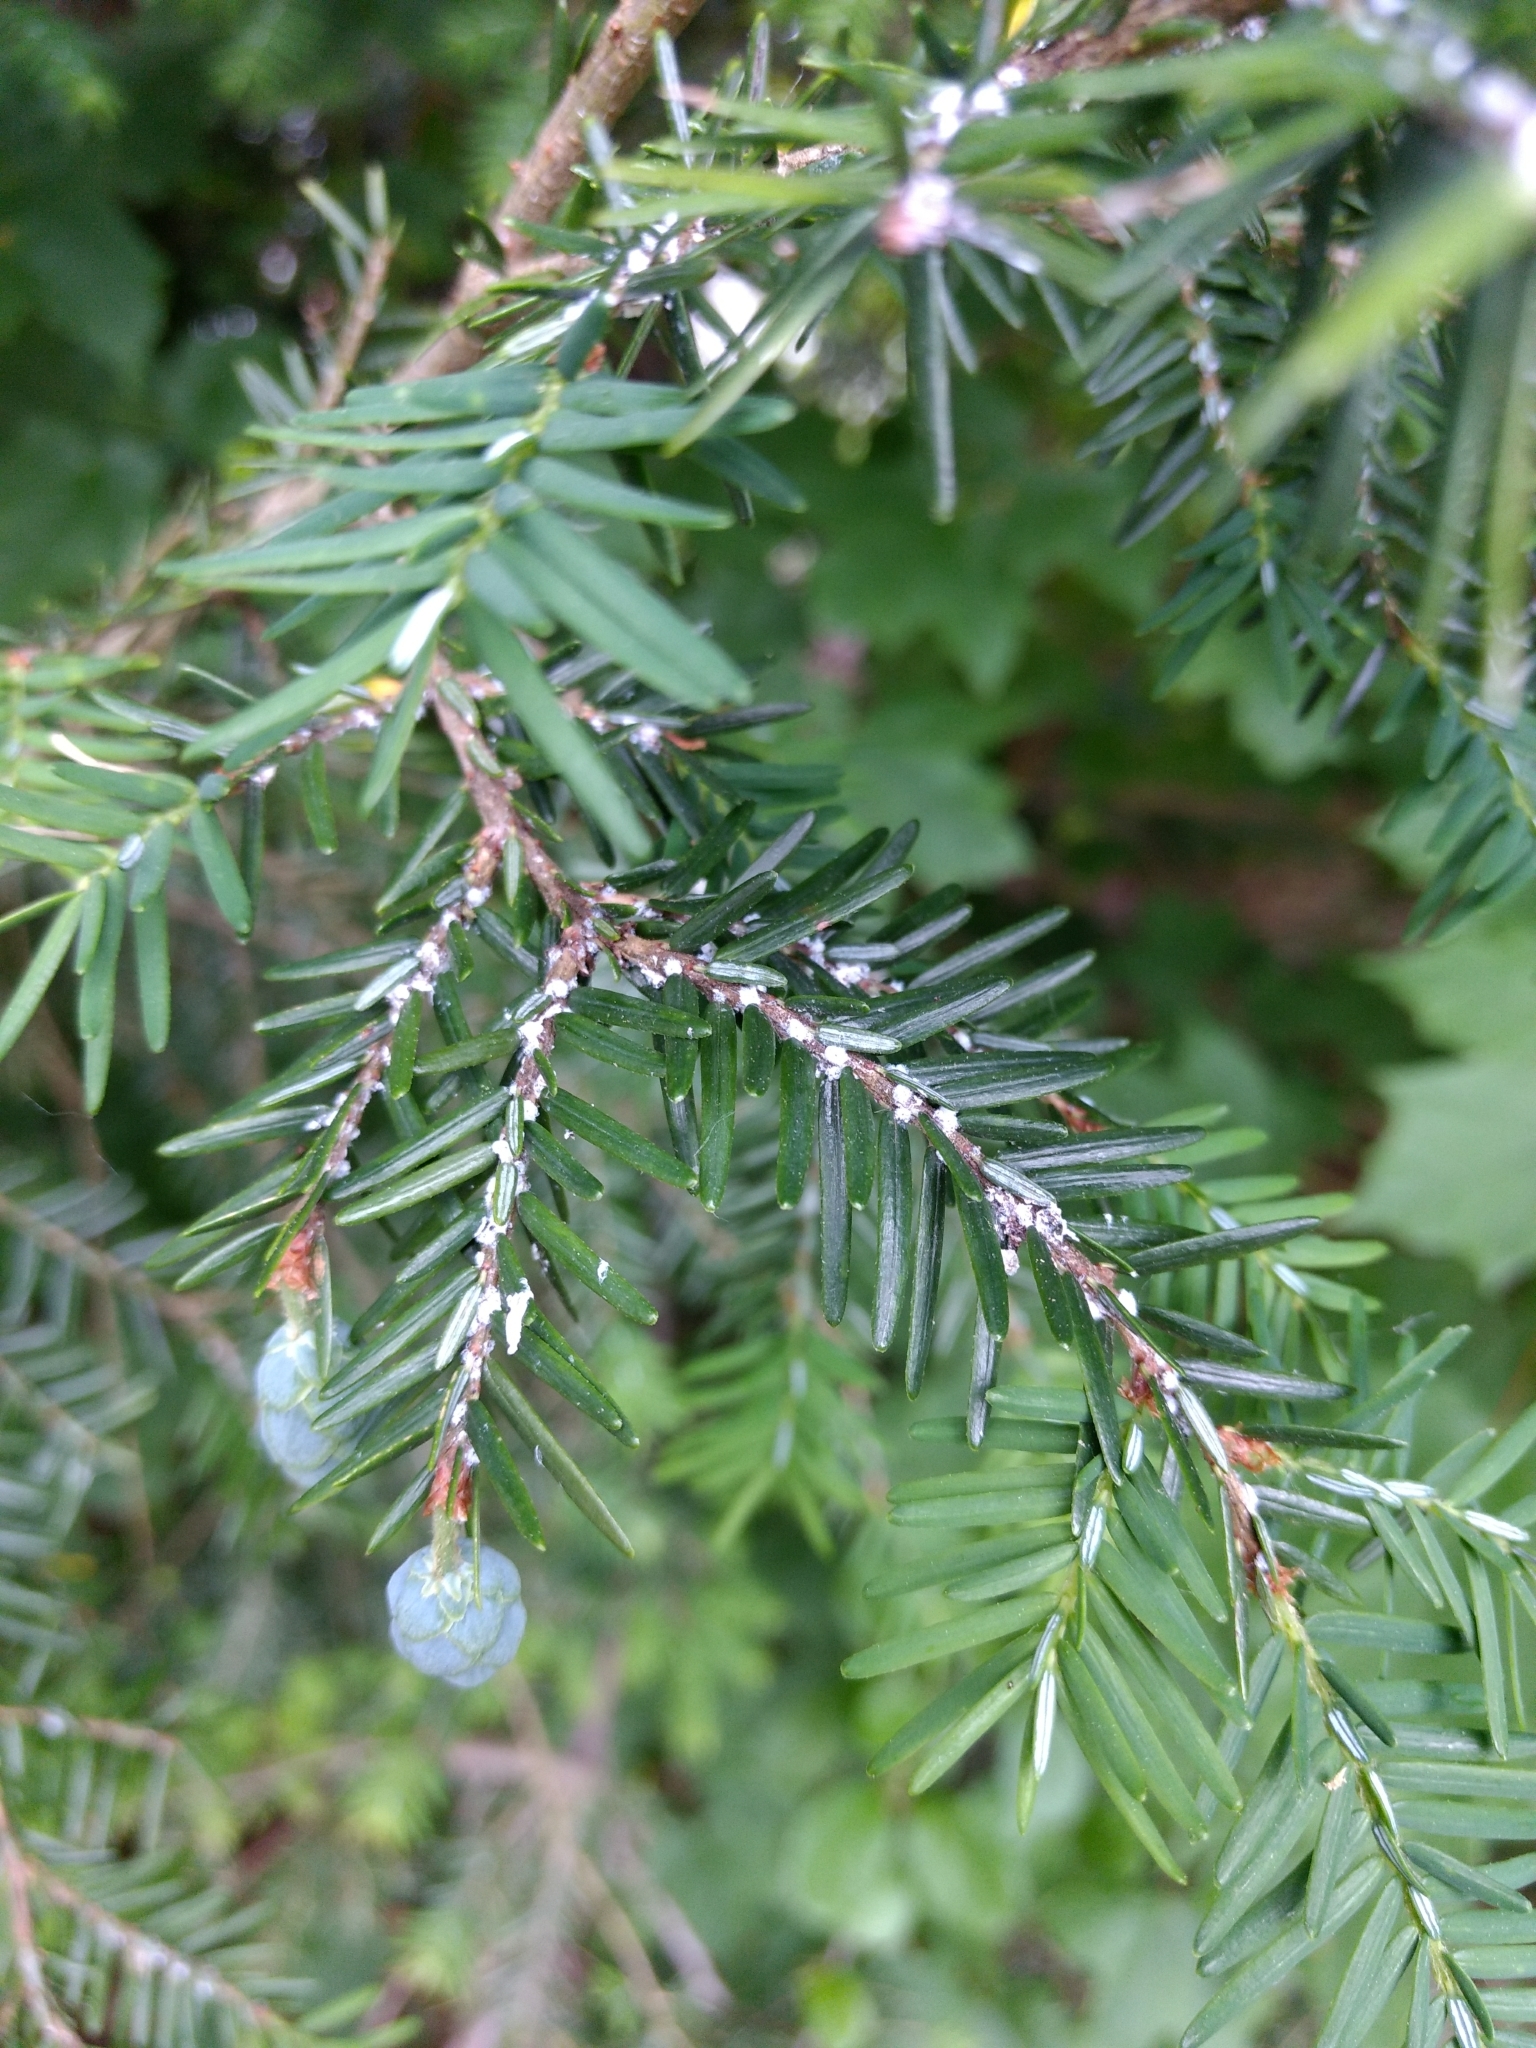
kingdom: Animalia
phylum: Arthropoda
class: Insecta
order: Hemiptera
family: Adelgidae
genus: Adelges
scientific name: Adelges tsugae
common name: Hemlock woolly adelgid
